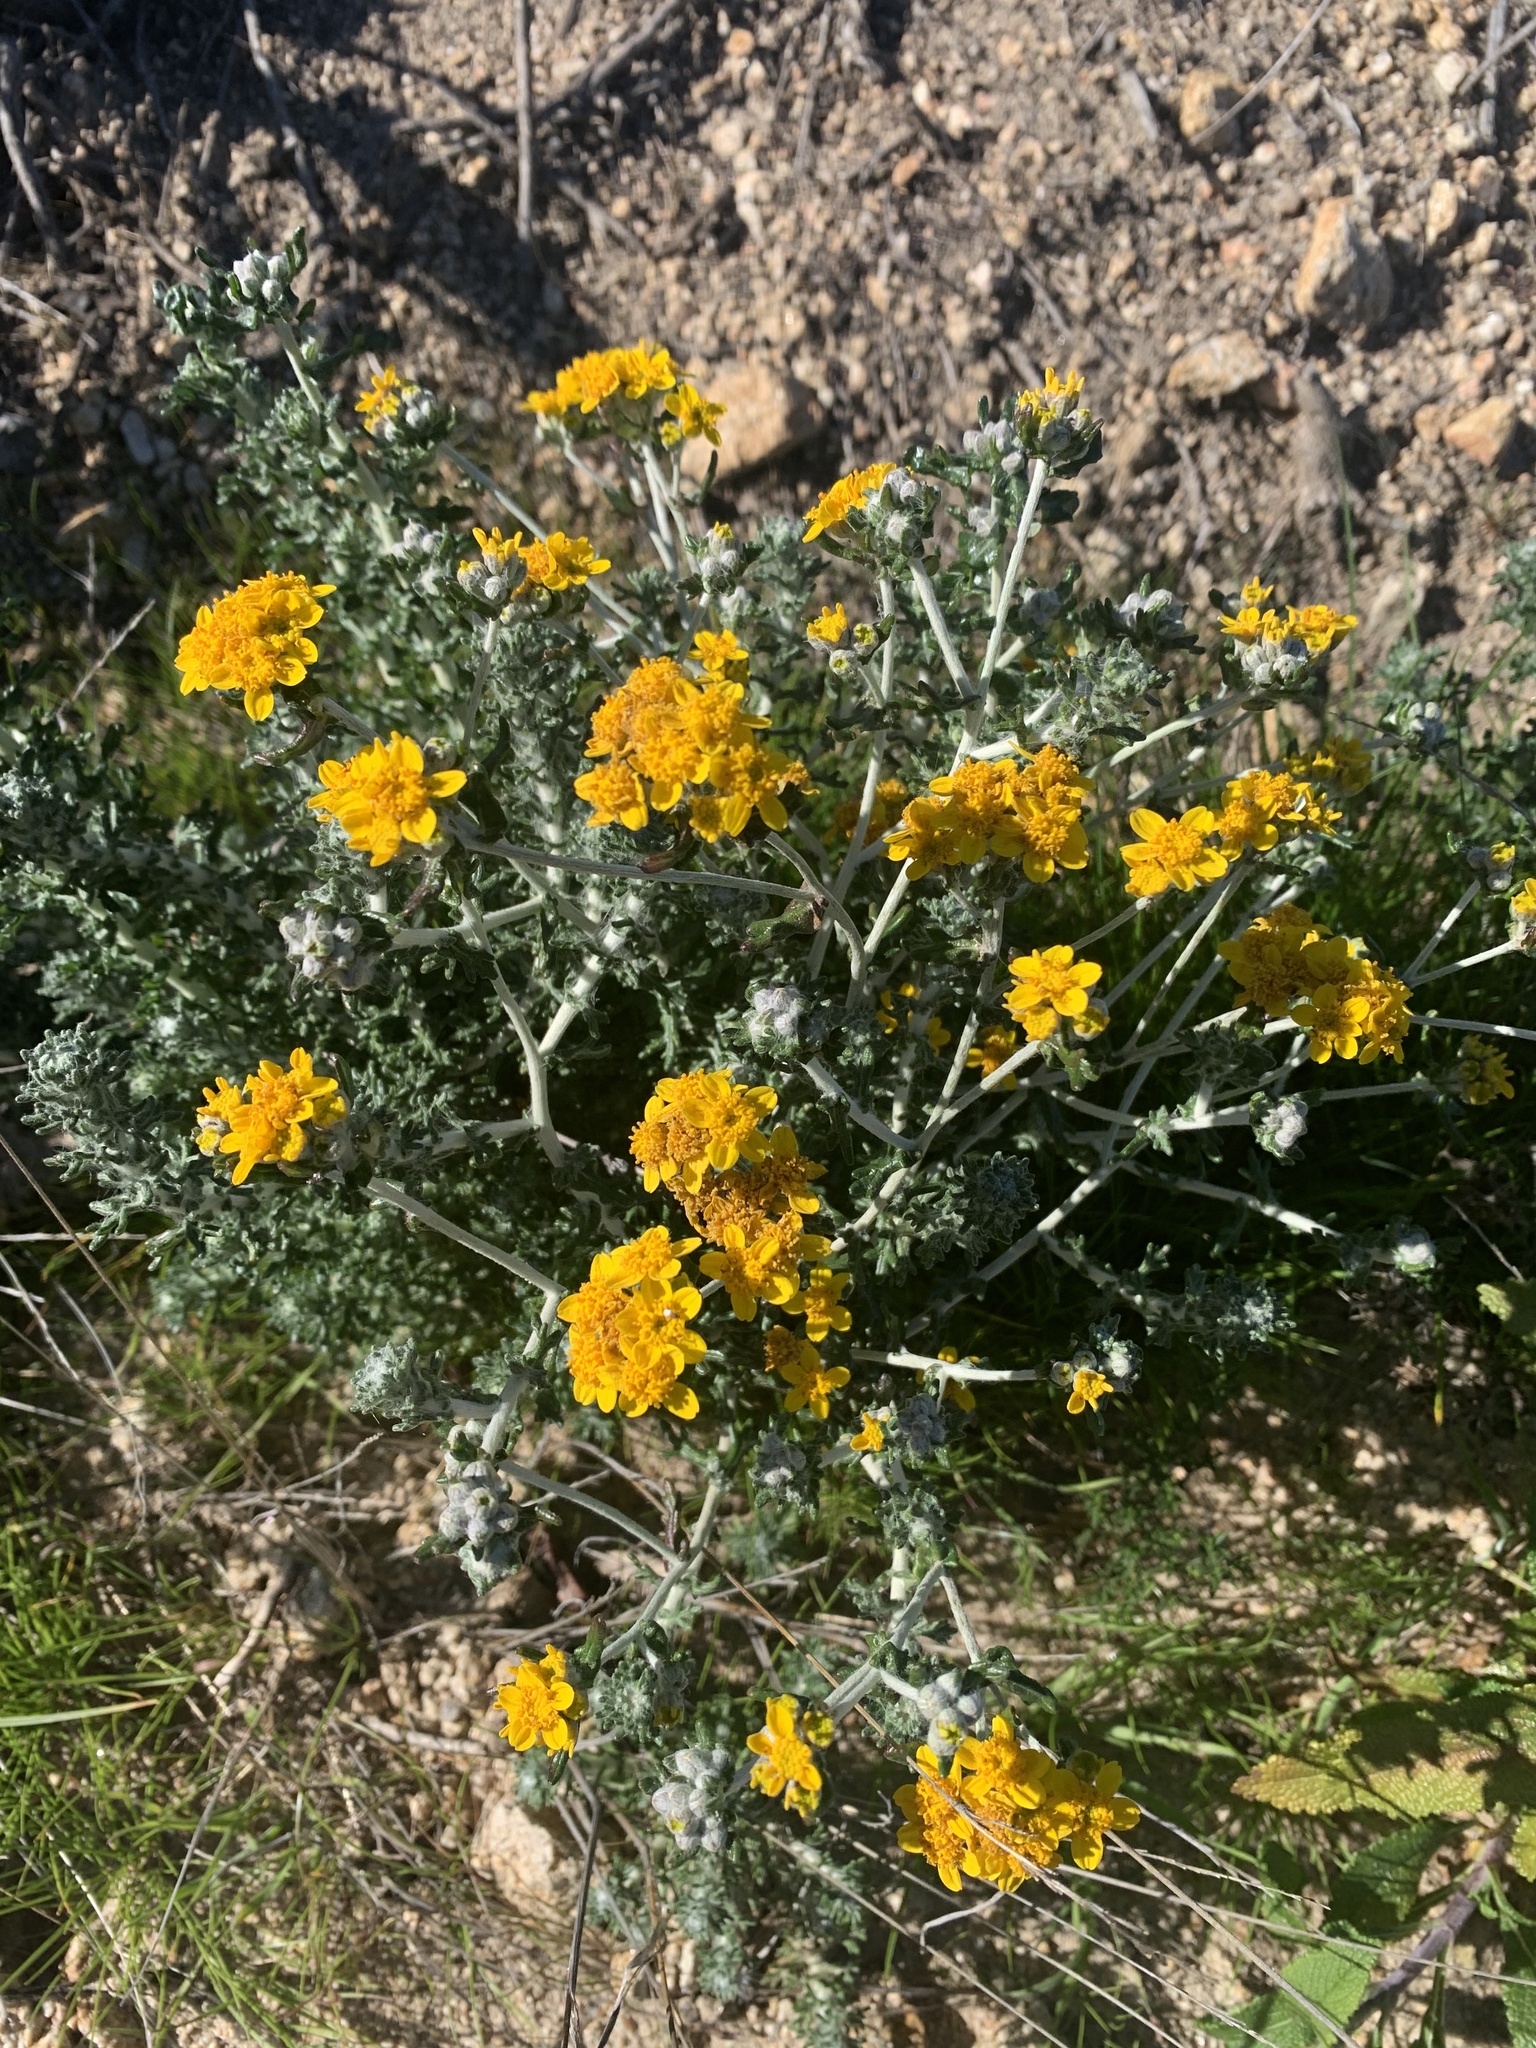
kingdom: Plantae
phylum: Tracheophyta
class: Magnoliopsida
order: Asterales
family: Asteraceae
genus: Eriophyllum
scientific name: Eriophyllum confertiflorum
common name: Golden-yarrow
